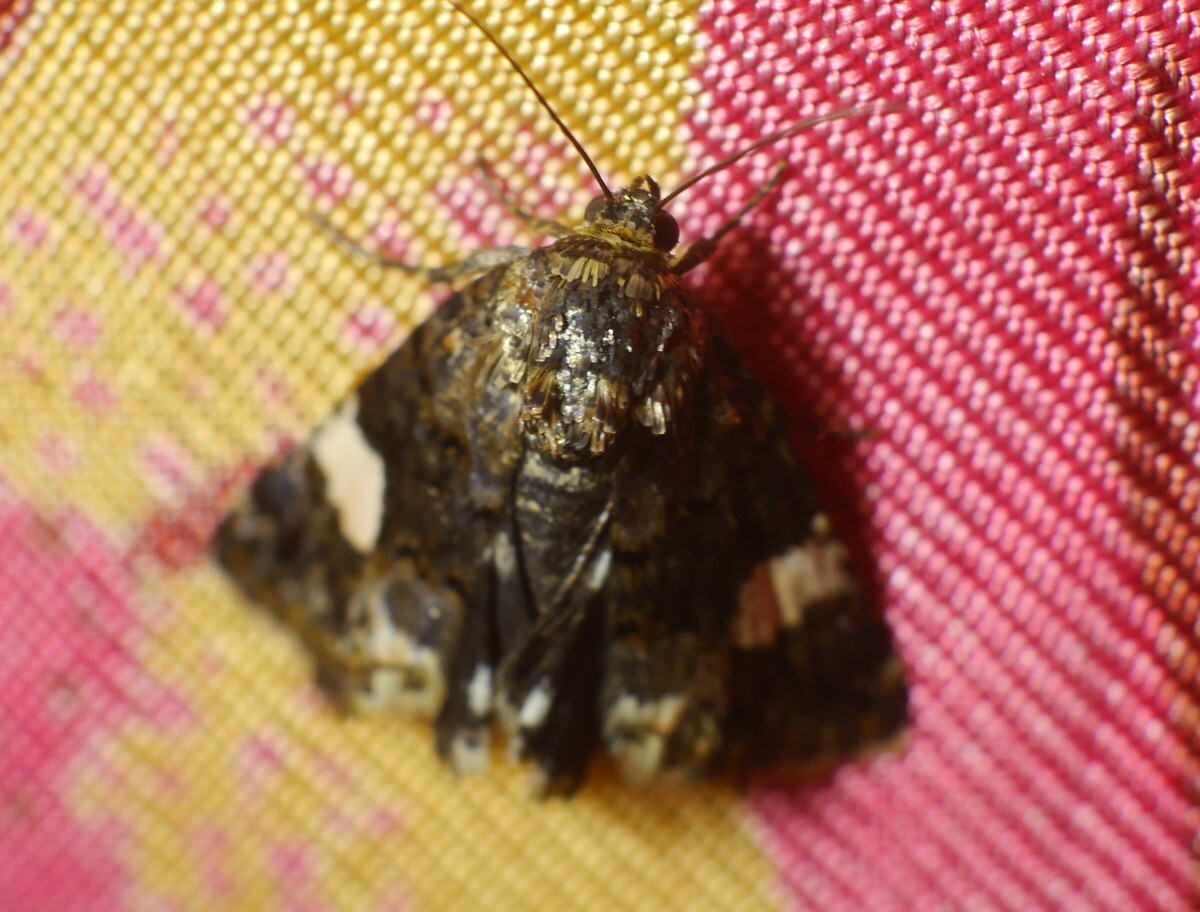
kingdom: Animalia
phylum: Arthropoda
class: Insecta
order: Lepidoptera
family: Erebidae
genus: Tyta
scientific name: Tyta luctuosa
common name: Four-spotted
